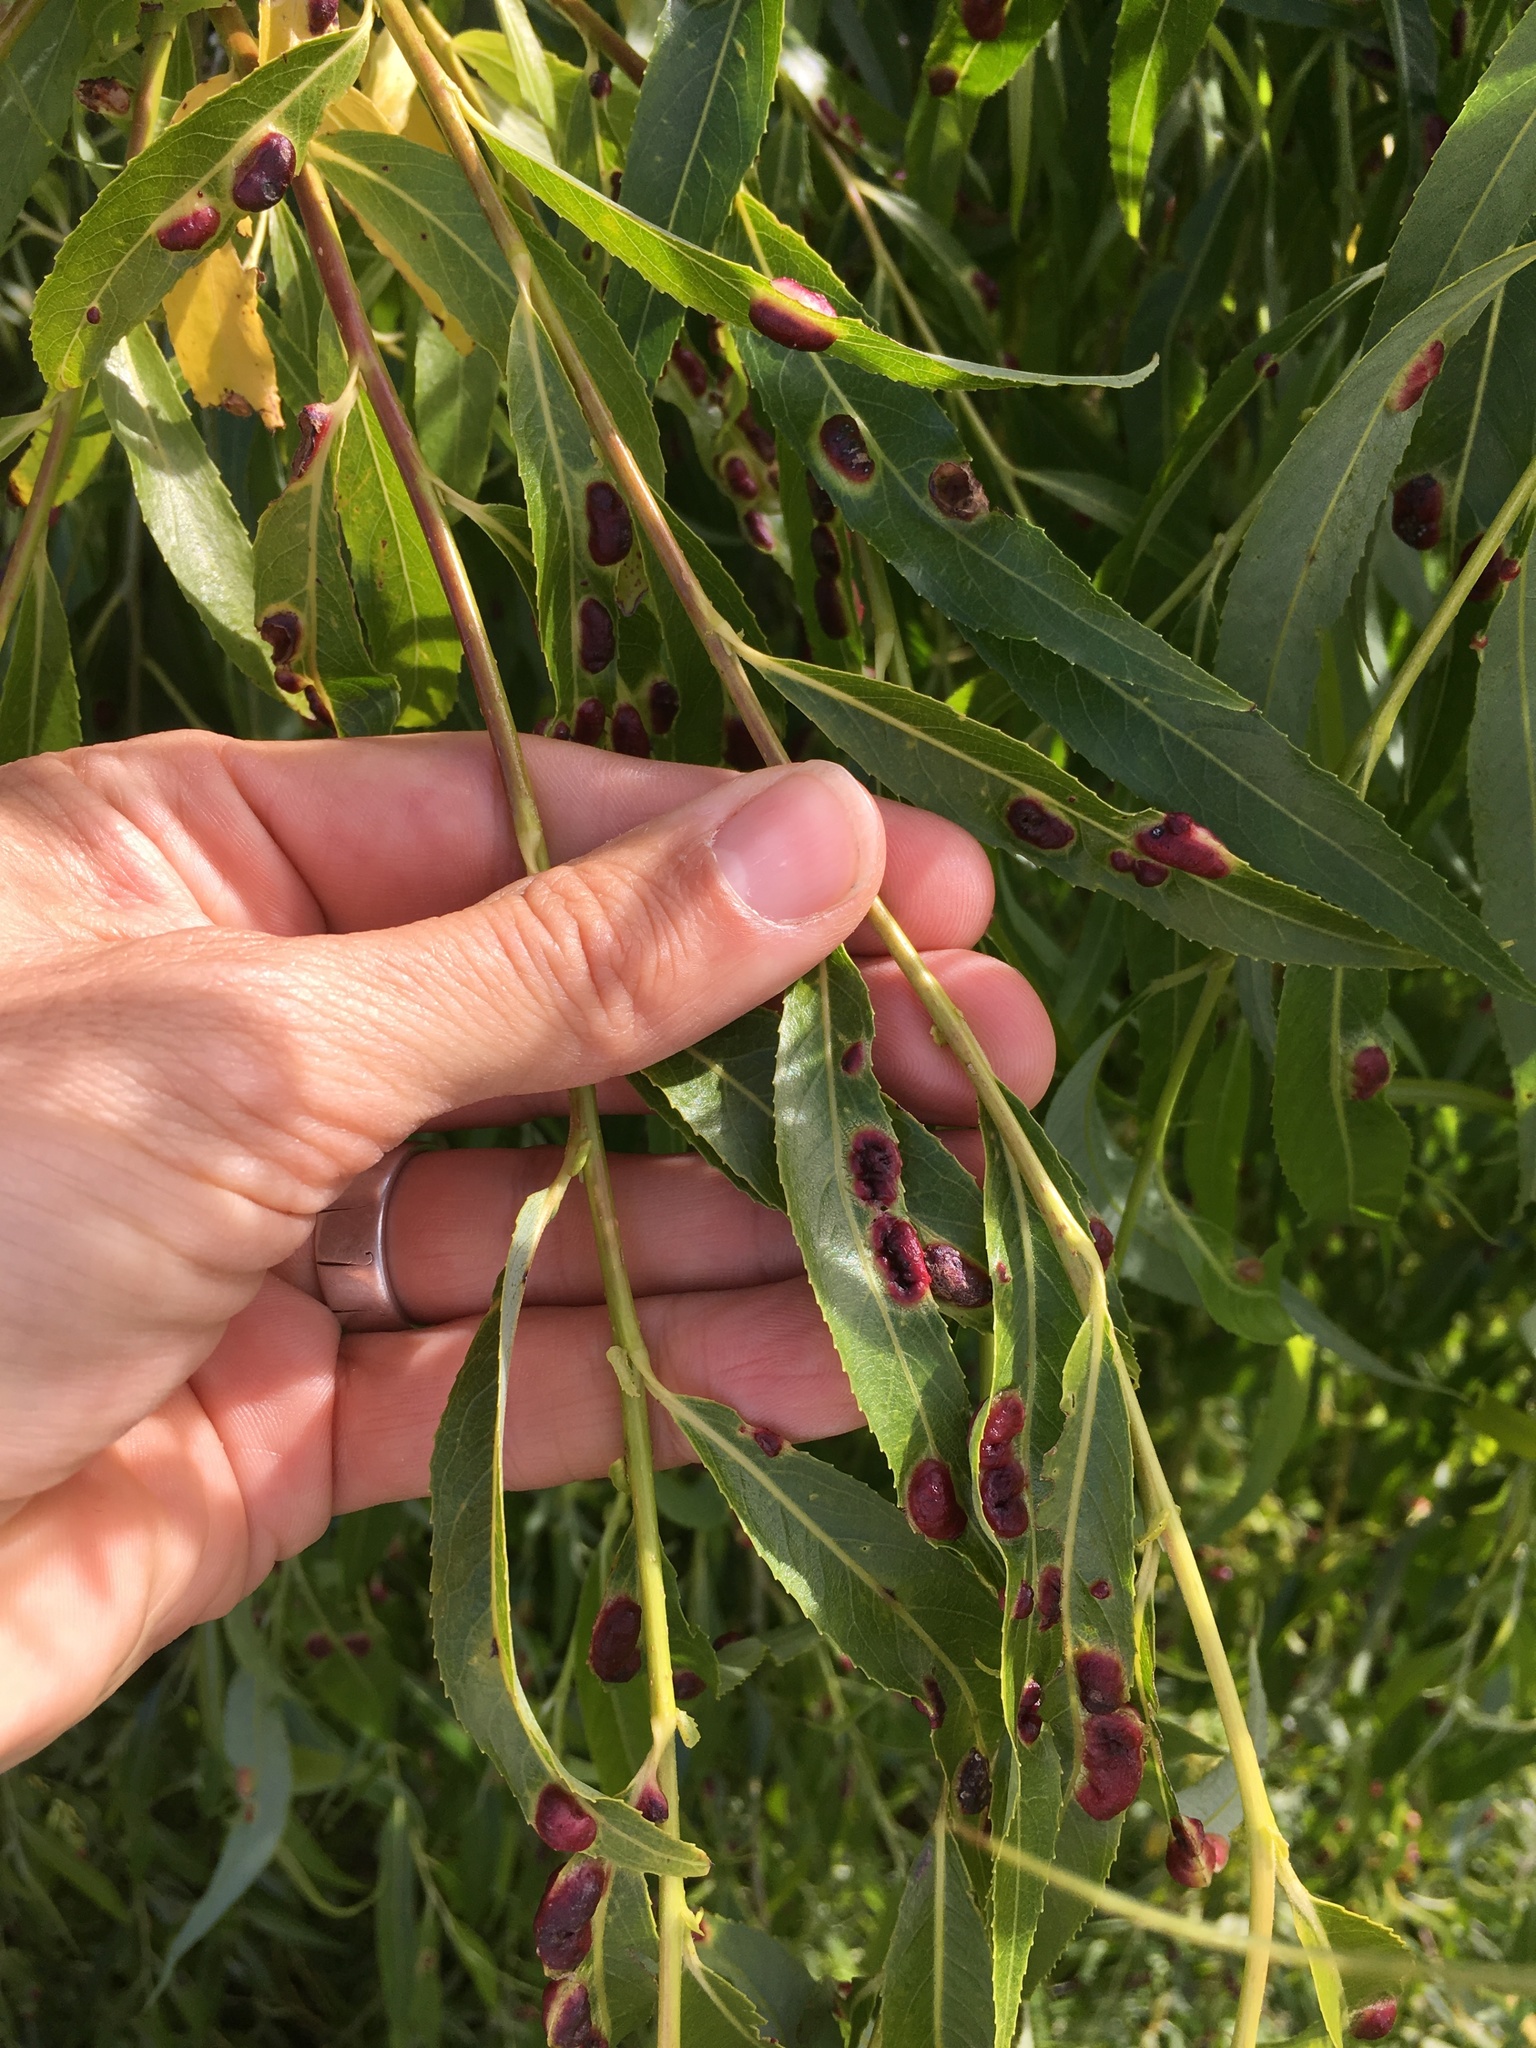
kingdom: Animalia
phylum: Arthropoda
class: Insecta
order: Hymenoptera
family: Tenthredinidae
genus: Pontania
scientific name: Pontania proxima
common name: Common sawfly
